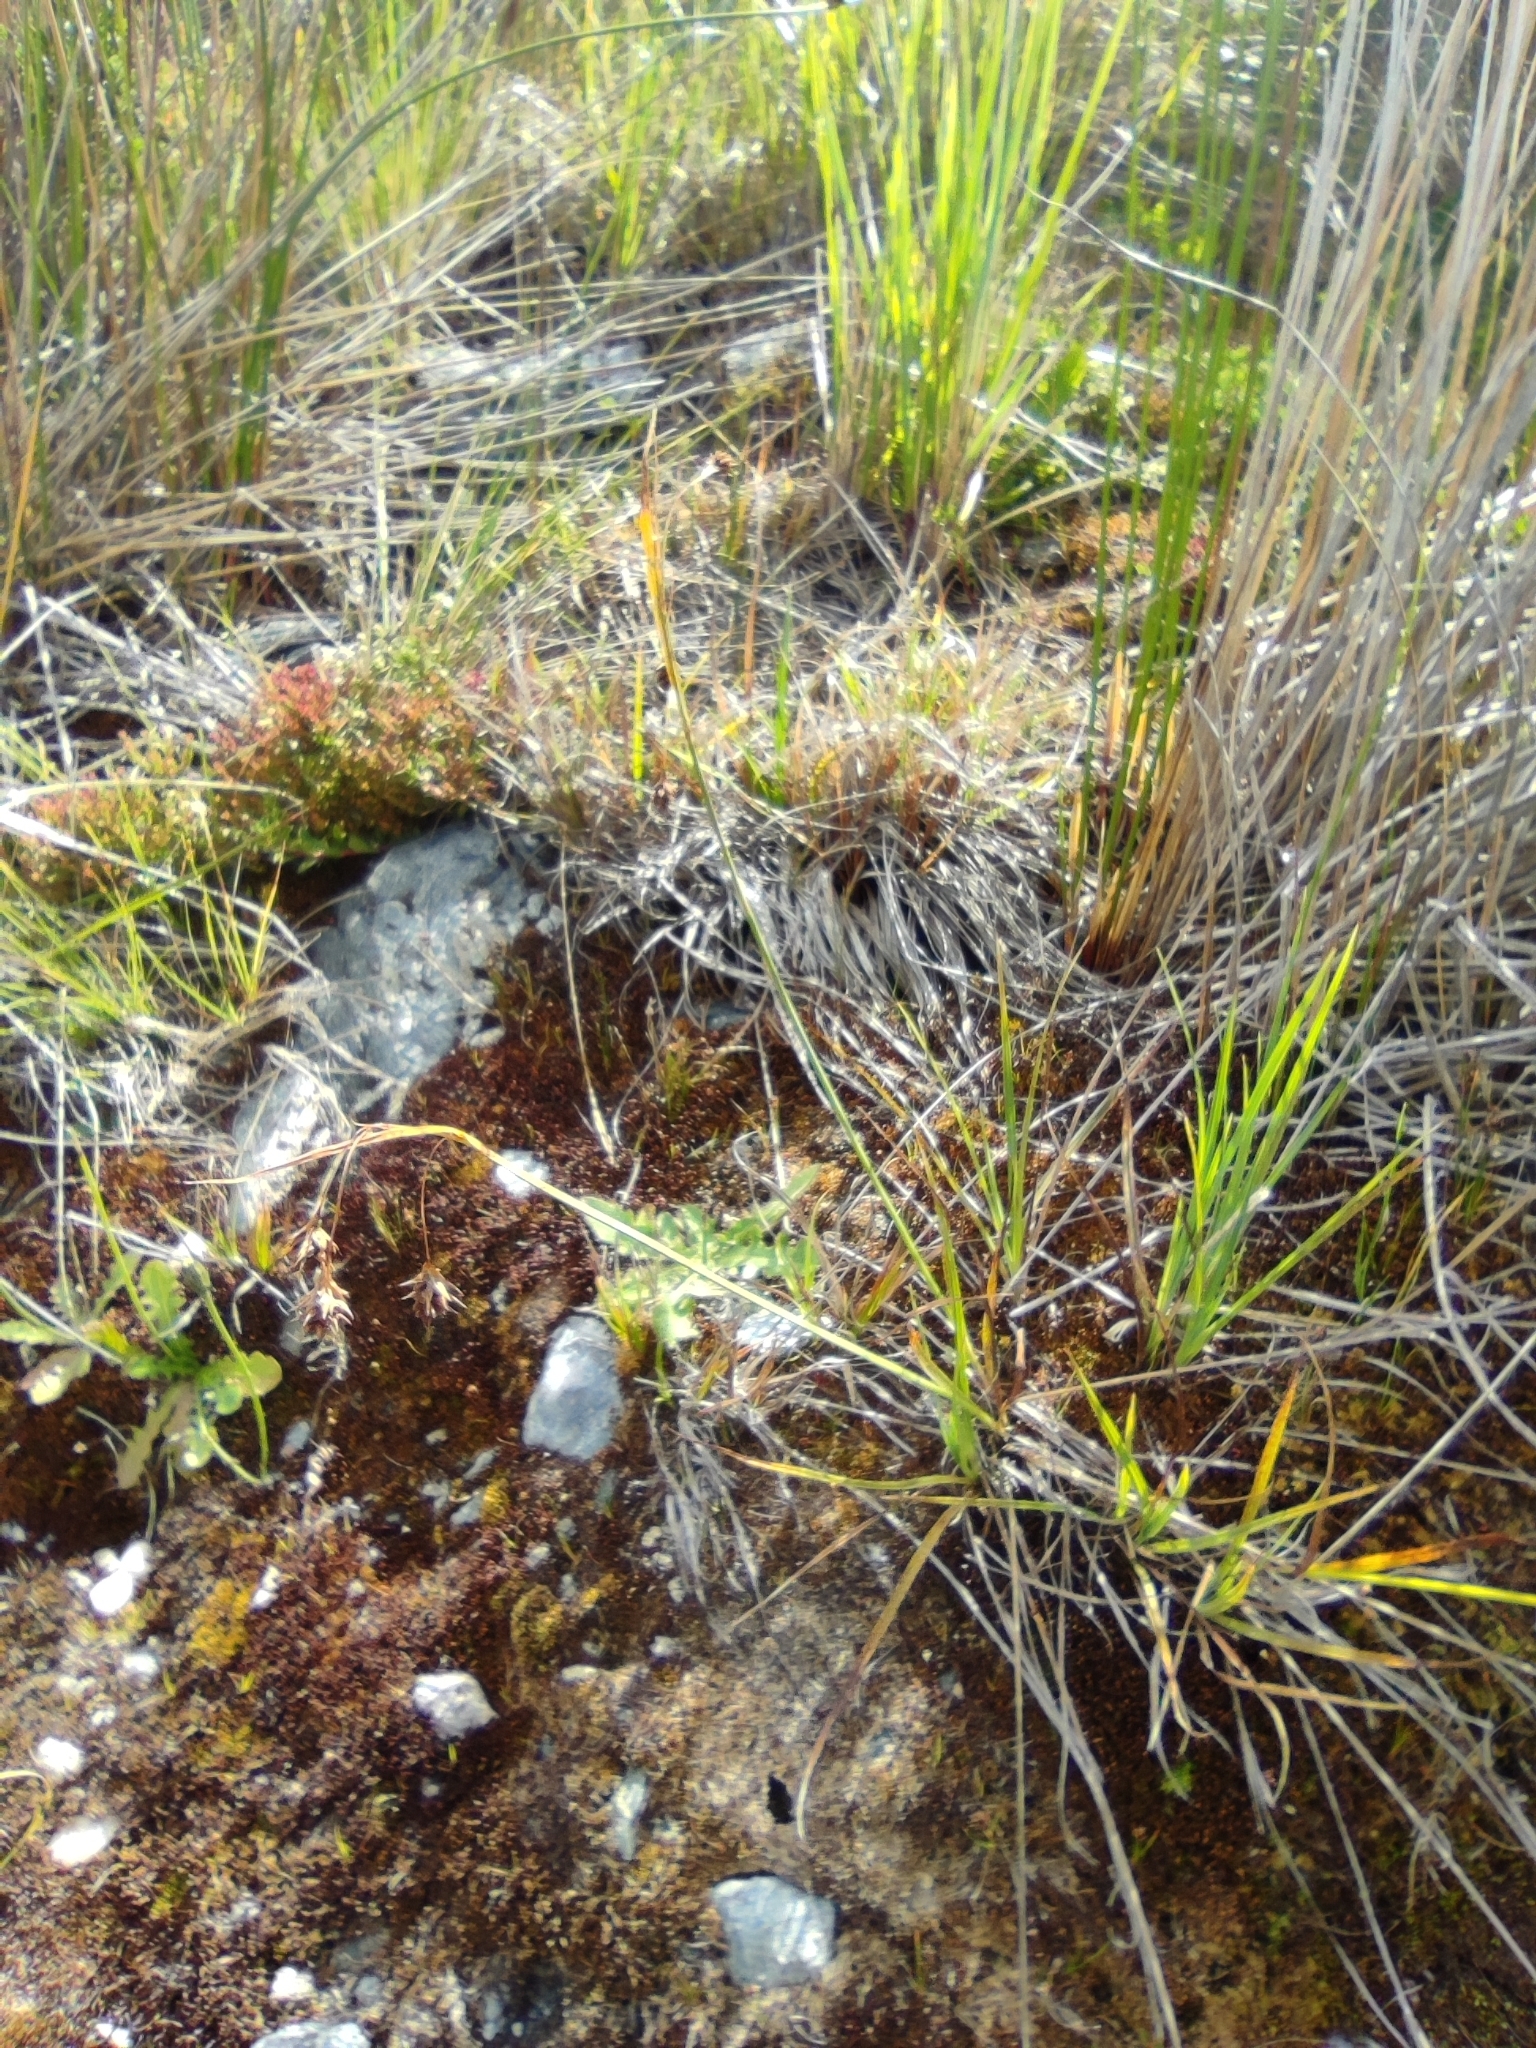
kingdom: Plantae
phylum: Tracheophyta
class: Liliopsida
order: Poales
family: Cyperaceae
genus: Carex
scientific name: Carex magellanica
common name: Bog sedge
